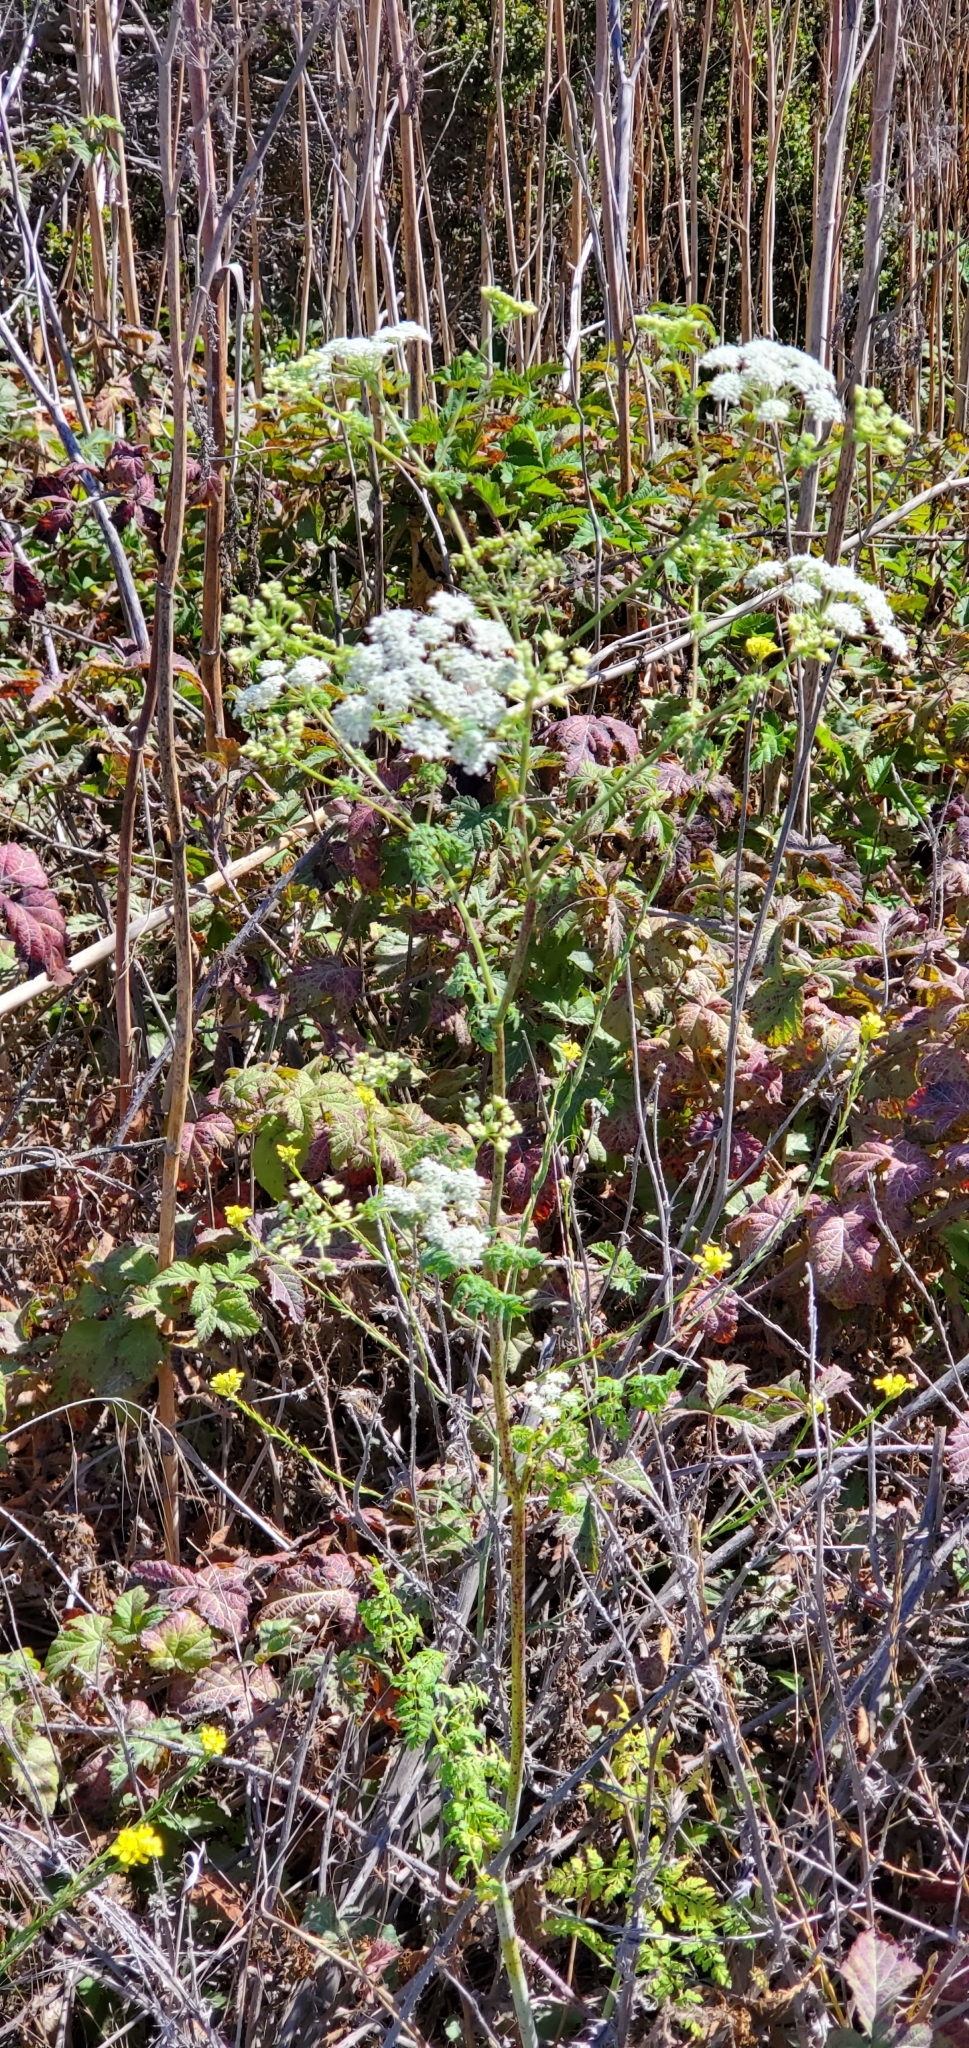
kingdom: Plantae
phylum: Tracheophyta
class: Magnoliopsida
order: Apiales
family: Apiaceae
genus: Conium
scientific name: Conium maculatum
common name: Hemlock
